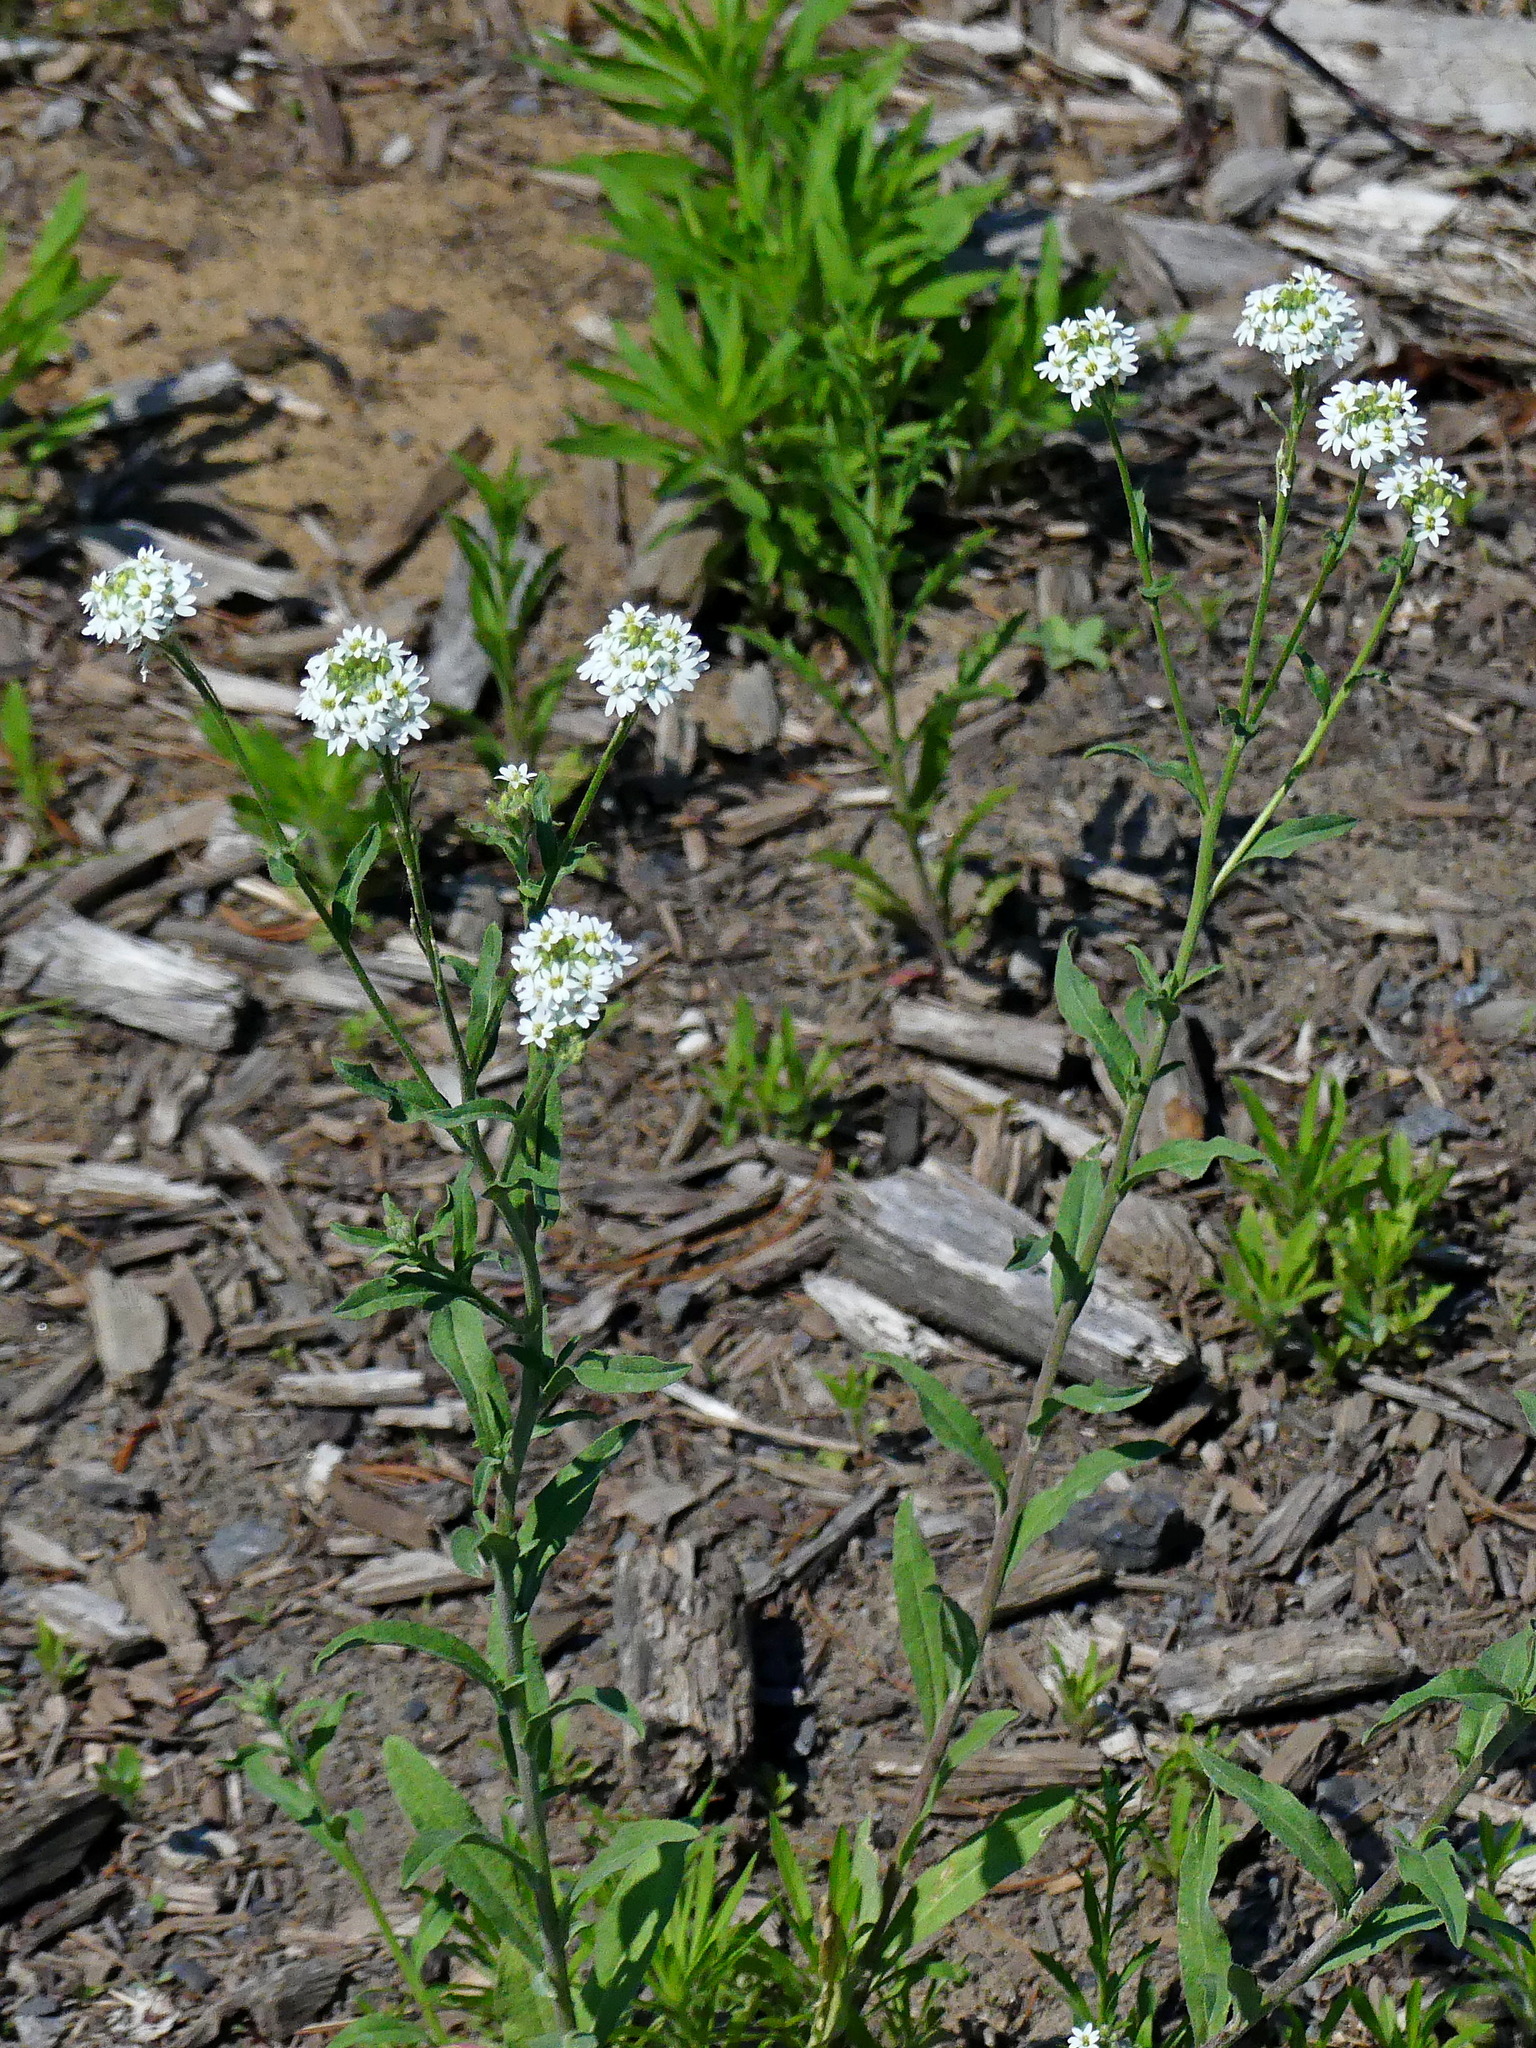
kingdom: Plantae
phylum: Tracheophyta
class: Magnoliopsida
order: Brassicales
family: Brassicaceae
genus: Berteroa
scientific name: Berteroa incana
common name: Hoary alison
